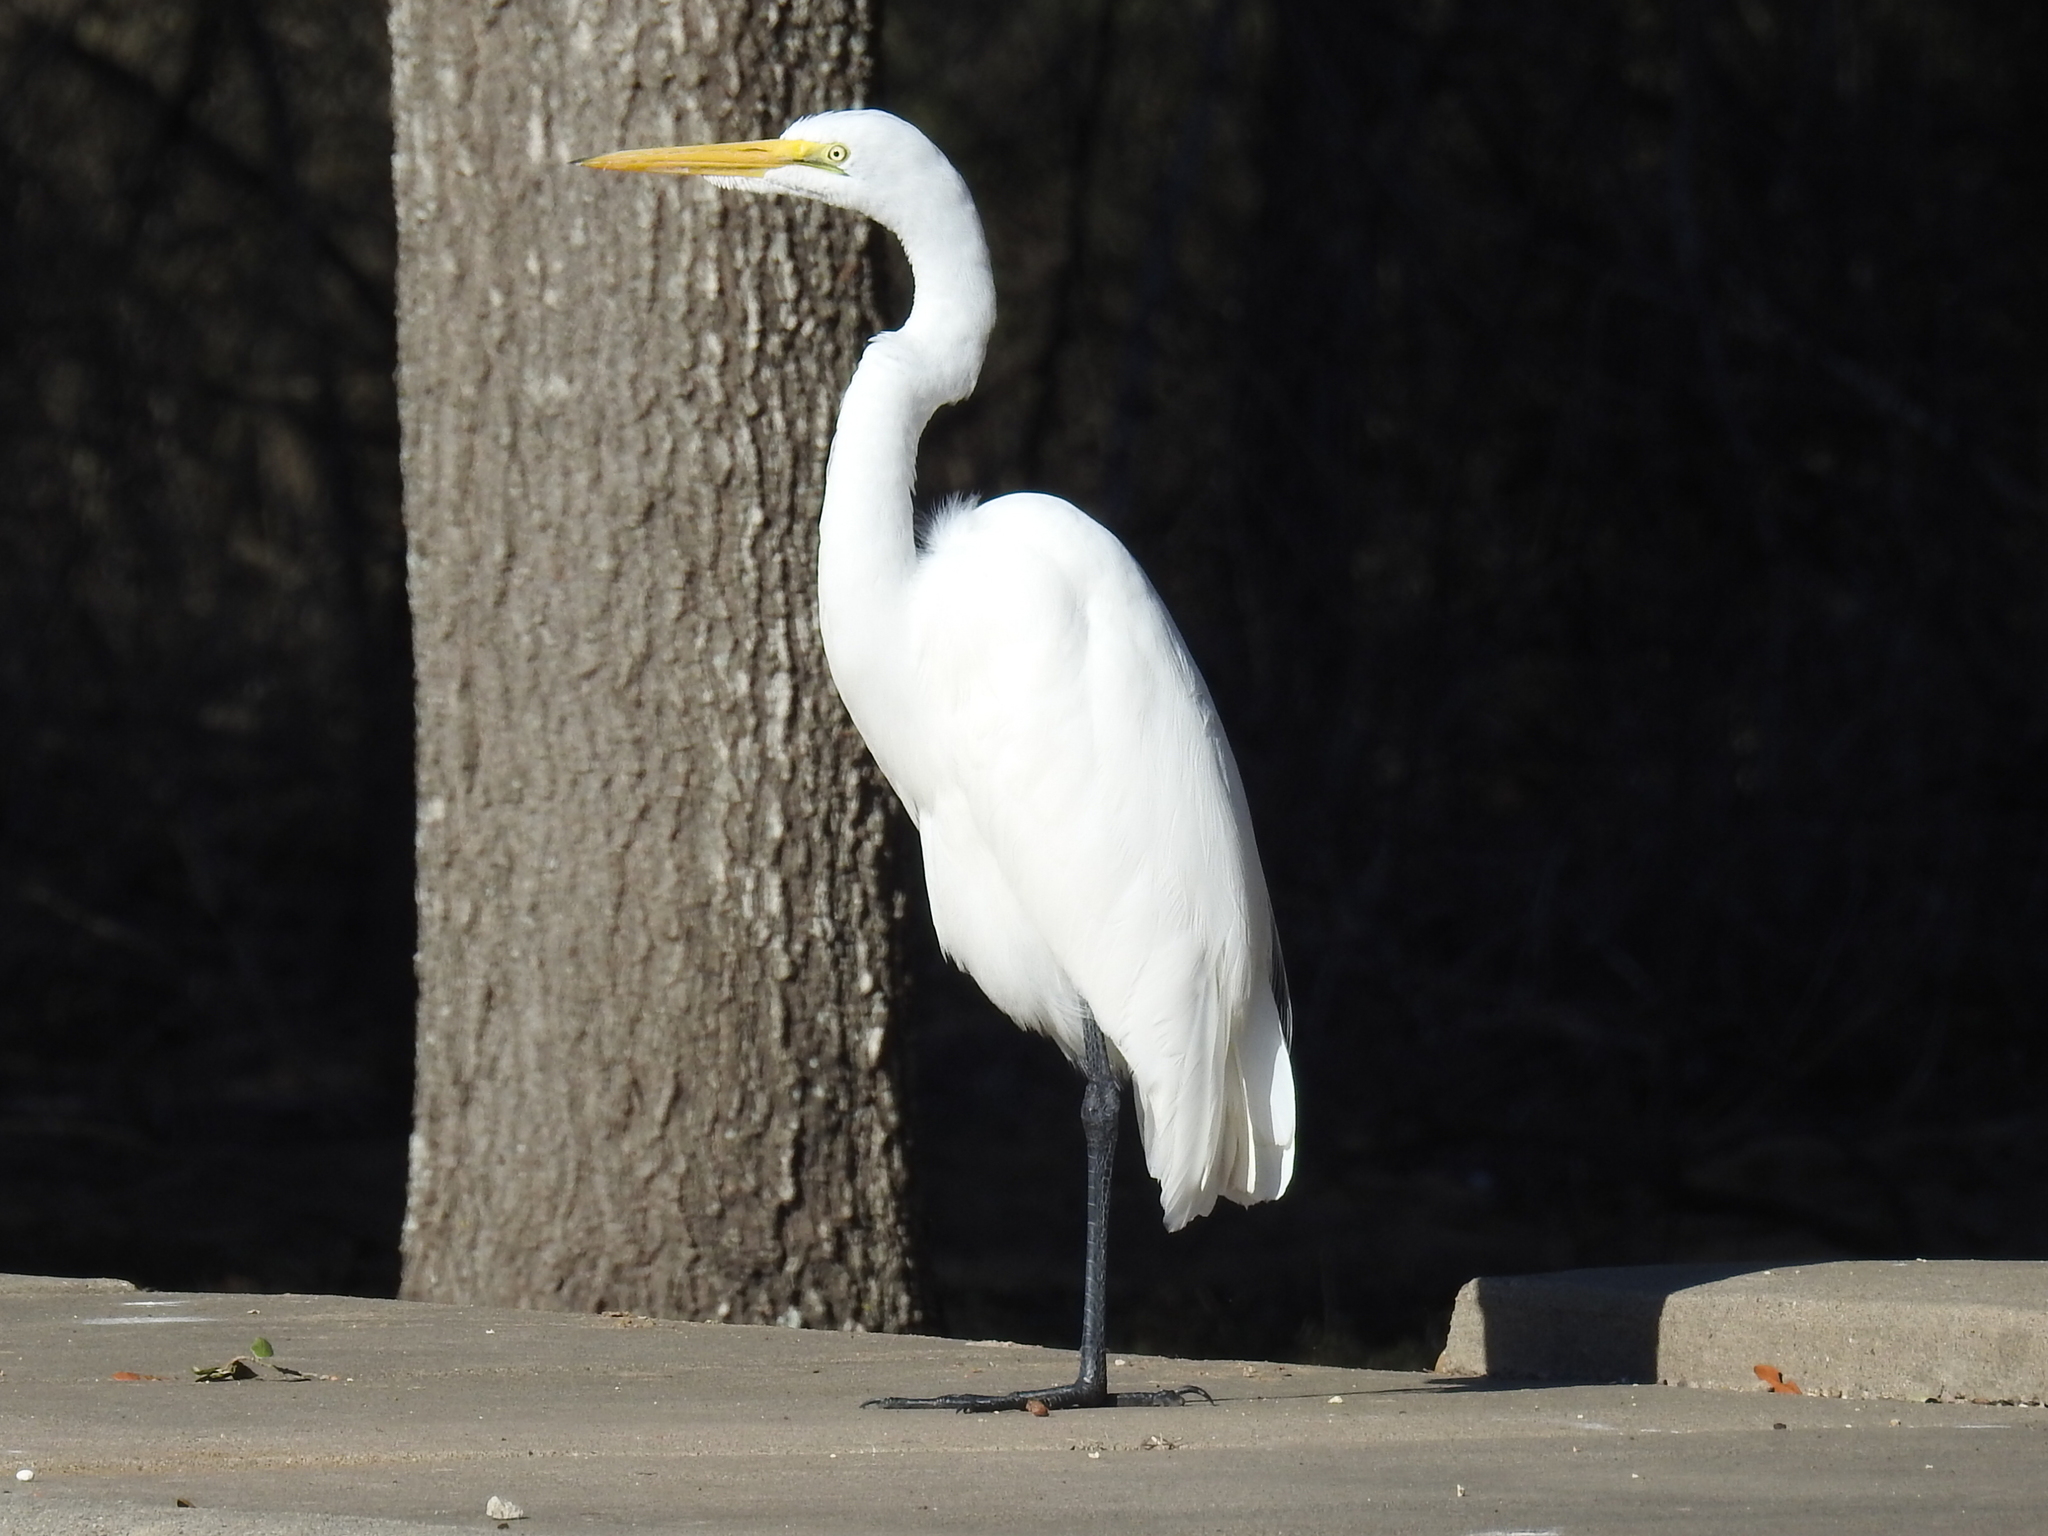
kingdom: Animalia
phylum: Chordata
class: Aves
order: Pelecaniformes
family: Ardeidae
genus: Ardea
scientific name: Ardea alba
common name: Great egret
